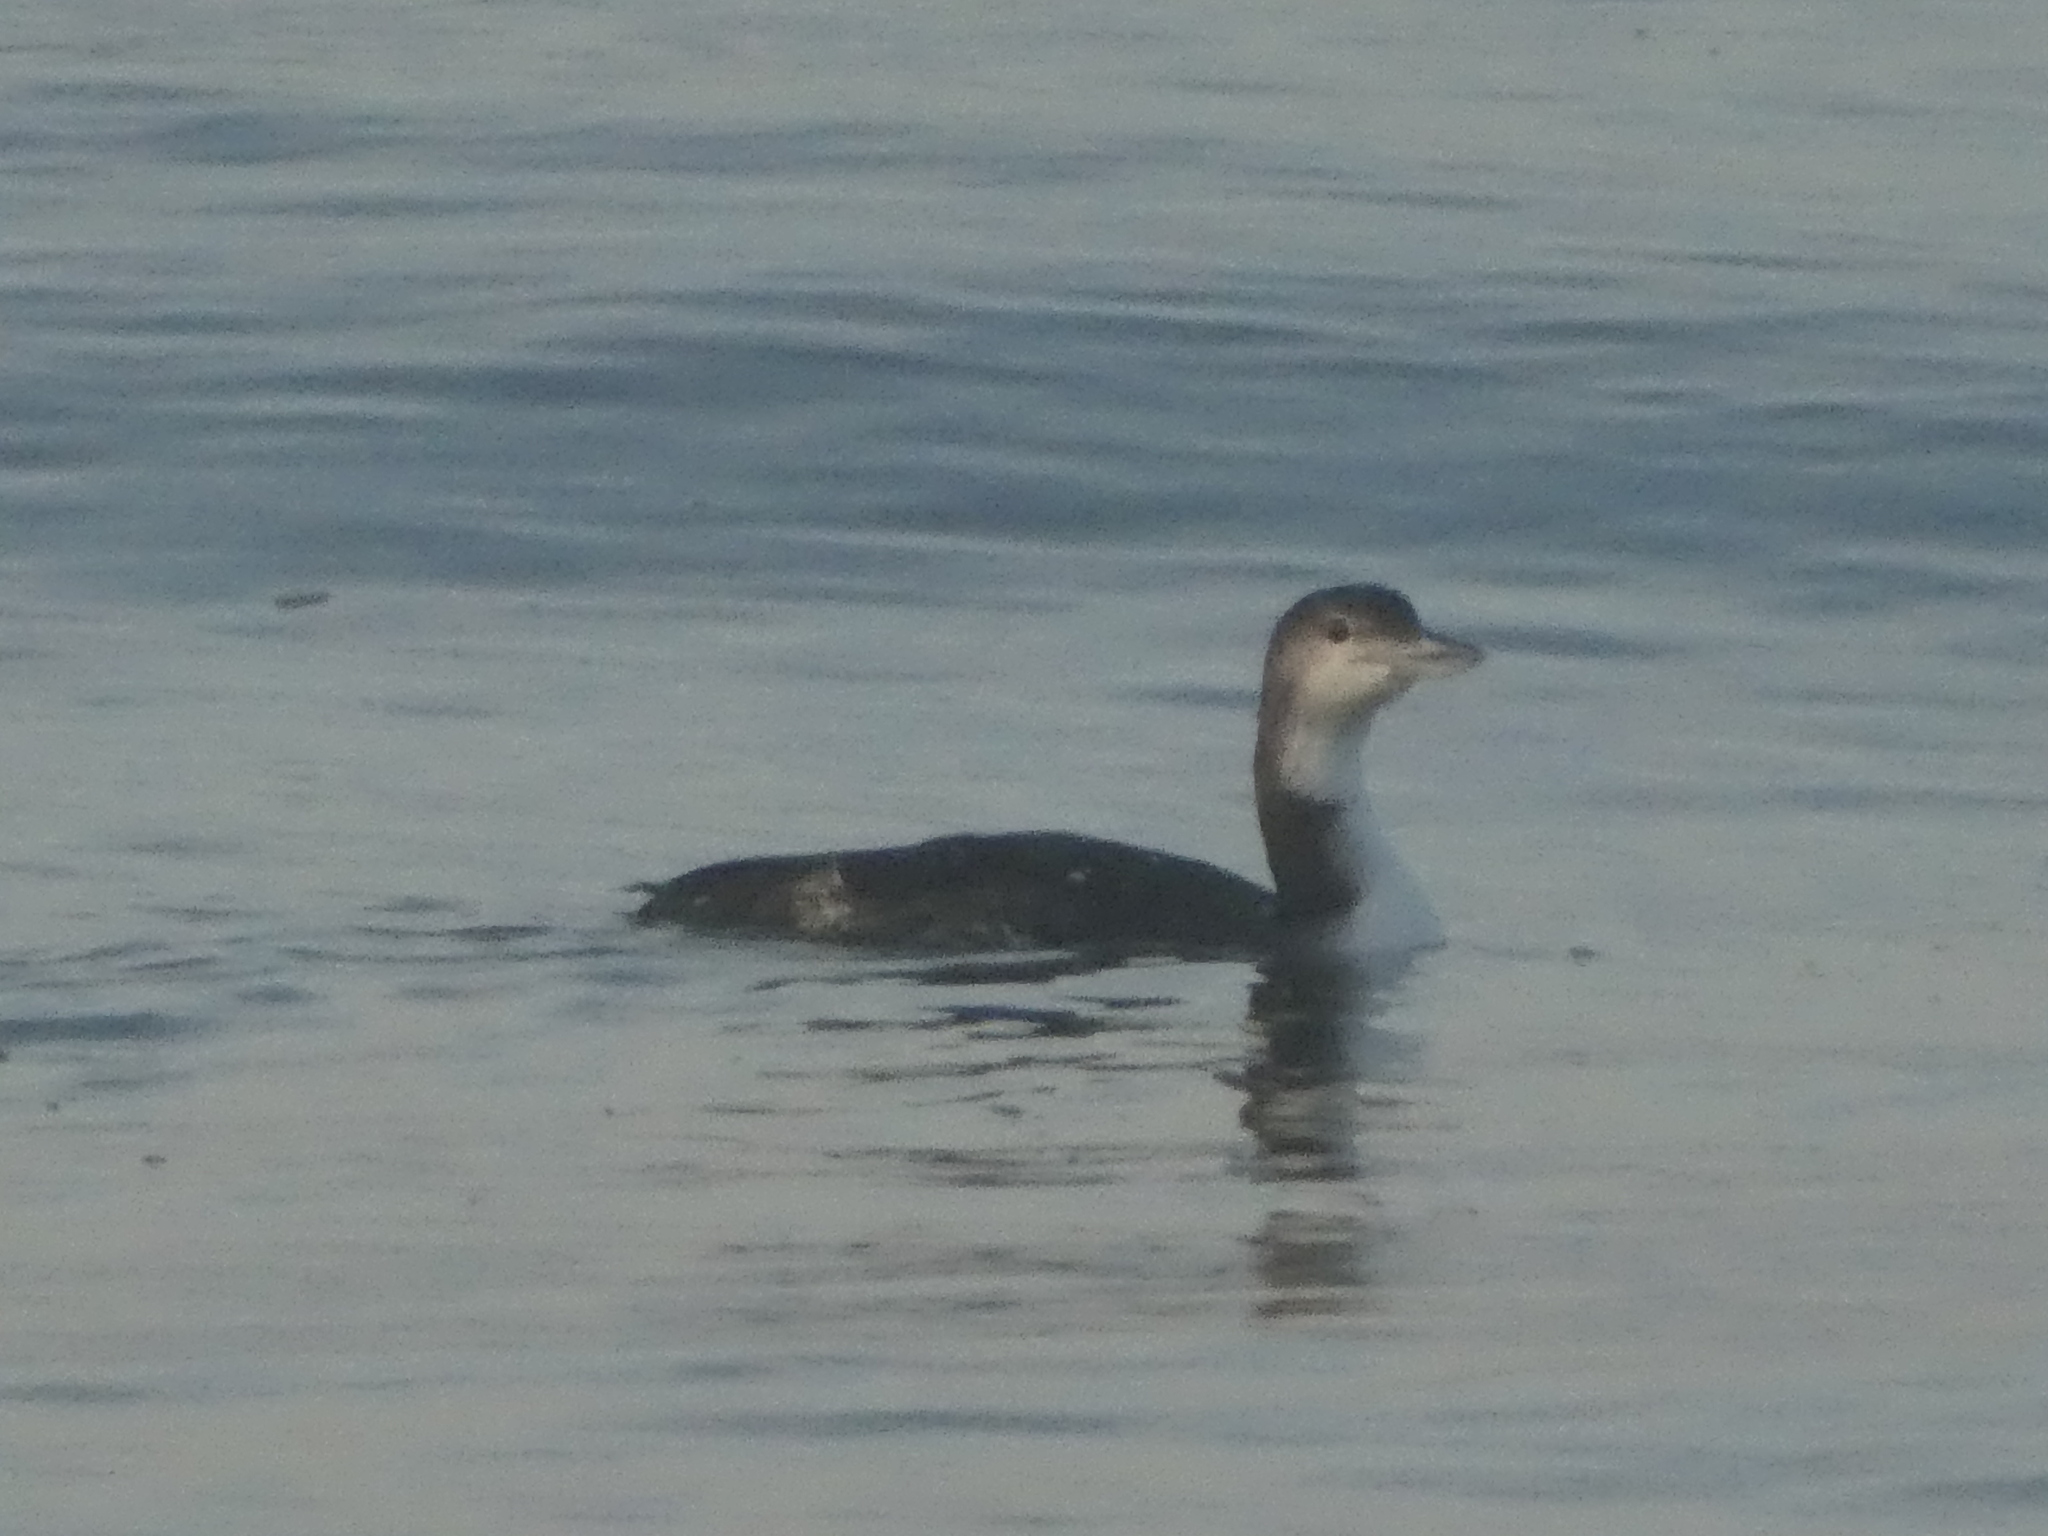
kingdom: Animalia
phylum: Chordata
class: Aves
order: Gaviiformes
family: Gaviidae
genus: Gavia
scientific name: Gavia immer
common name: Common loon
